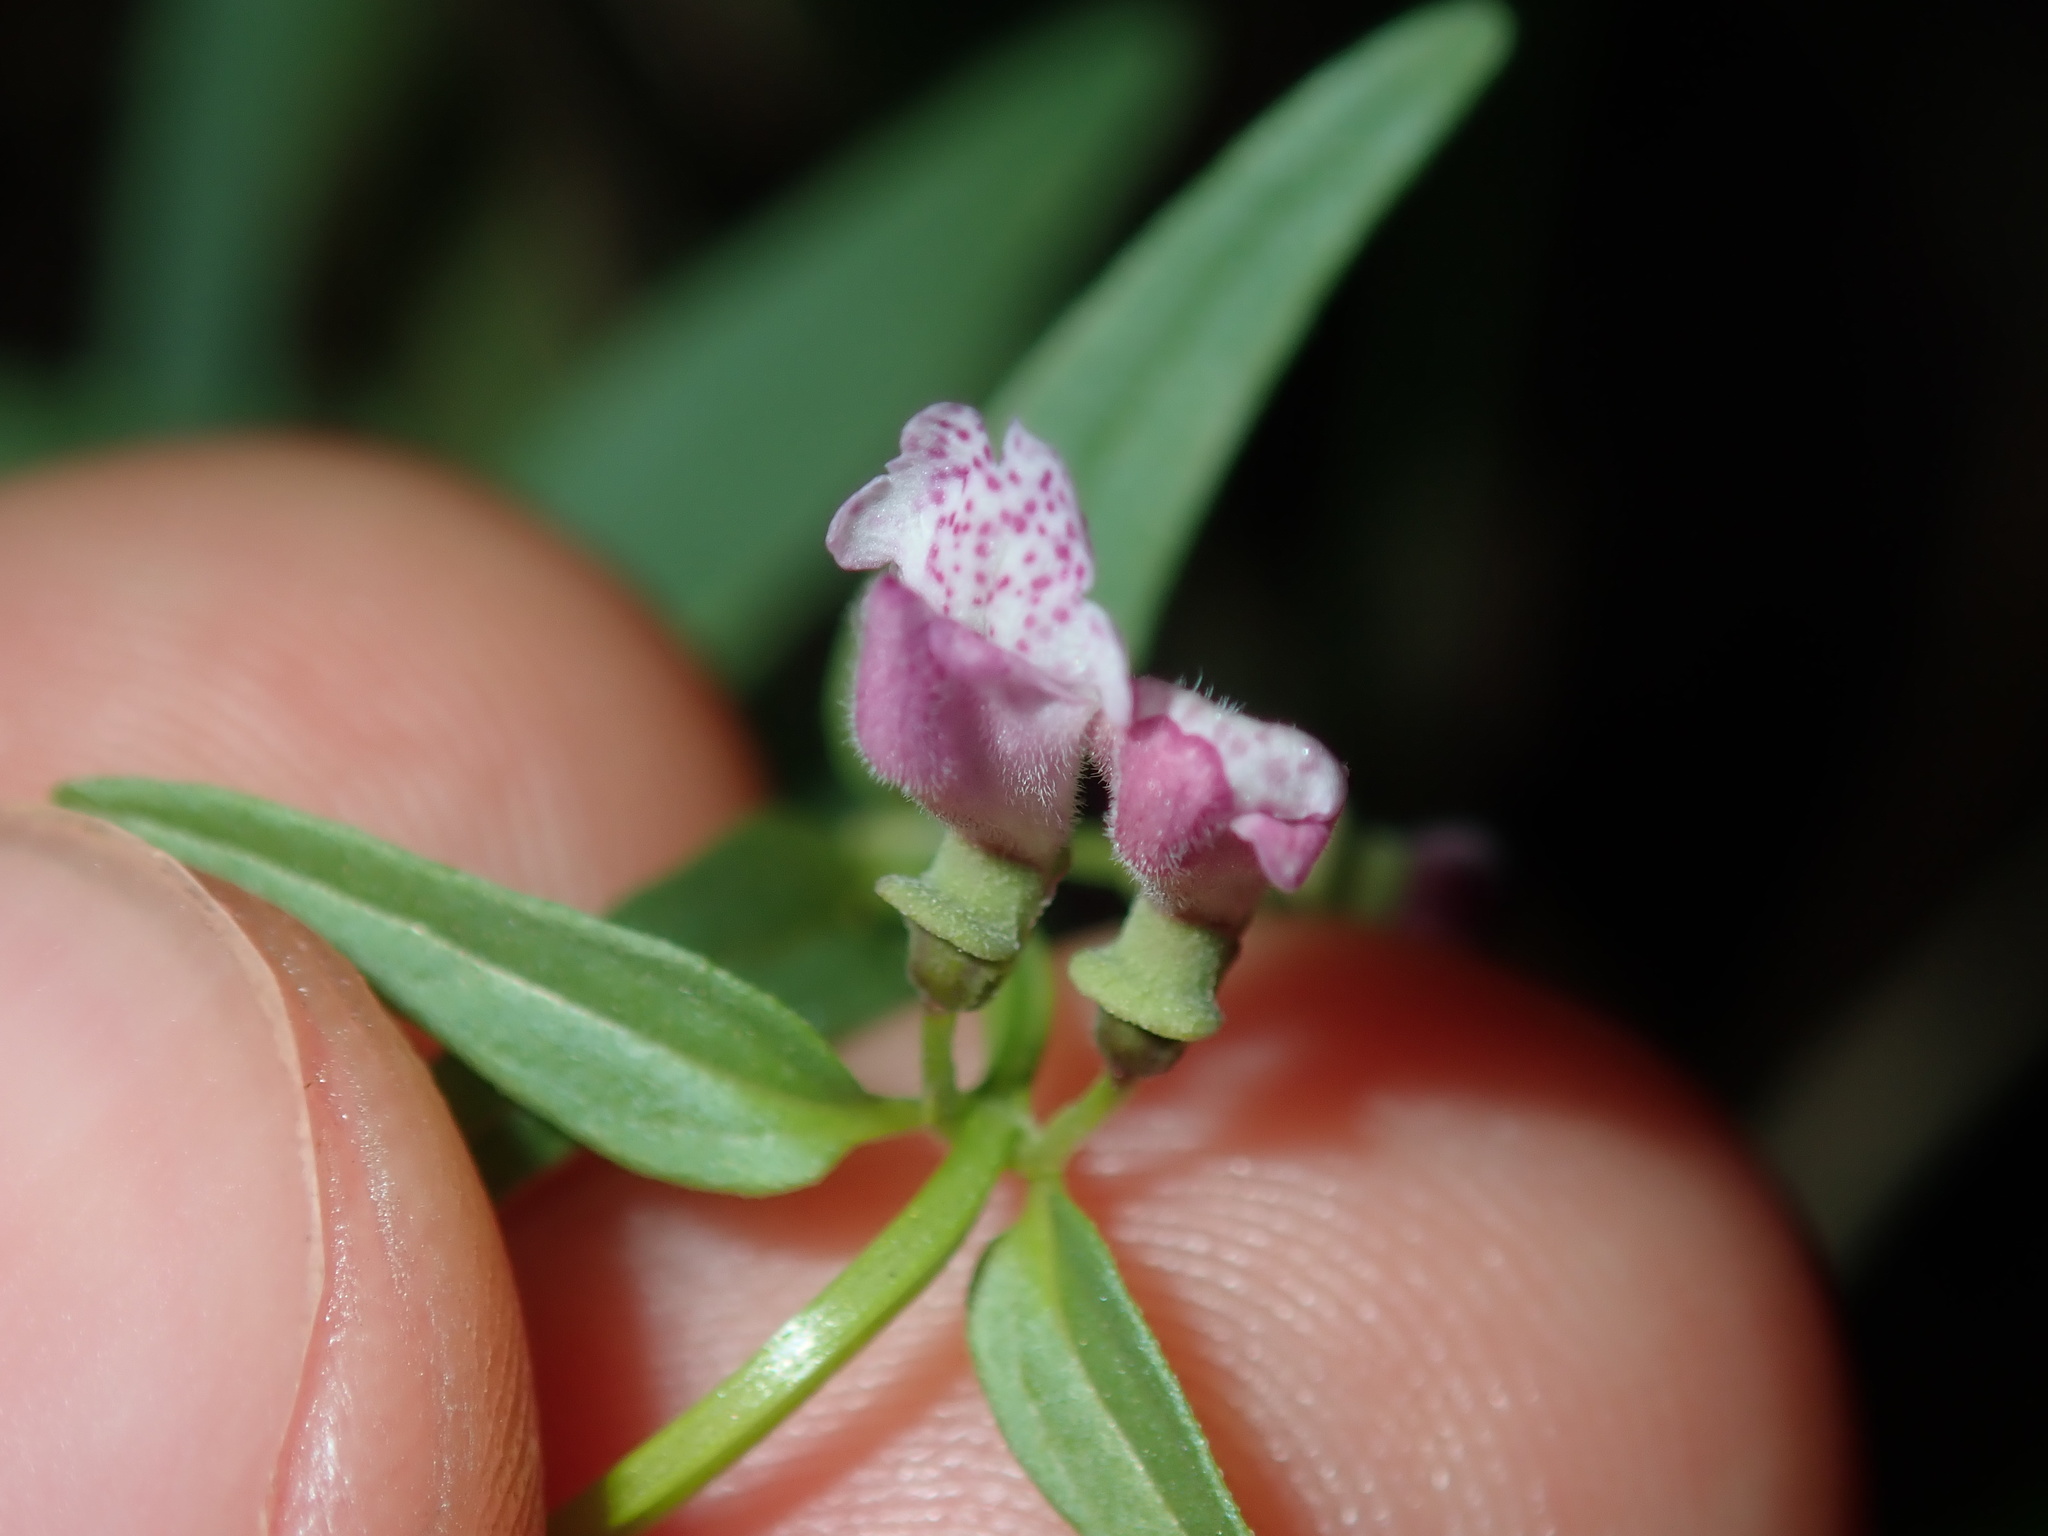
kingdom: Plantae
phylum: Tracheophyta
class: Magnoliopsida
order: Lamiales
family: Lamiaceae
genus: Scutellaria
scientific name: Scutellaria racemosa
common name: South american skullcap
